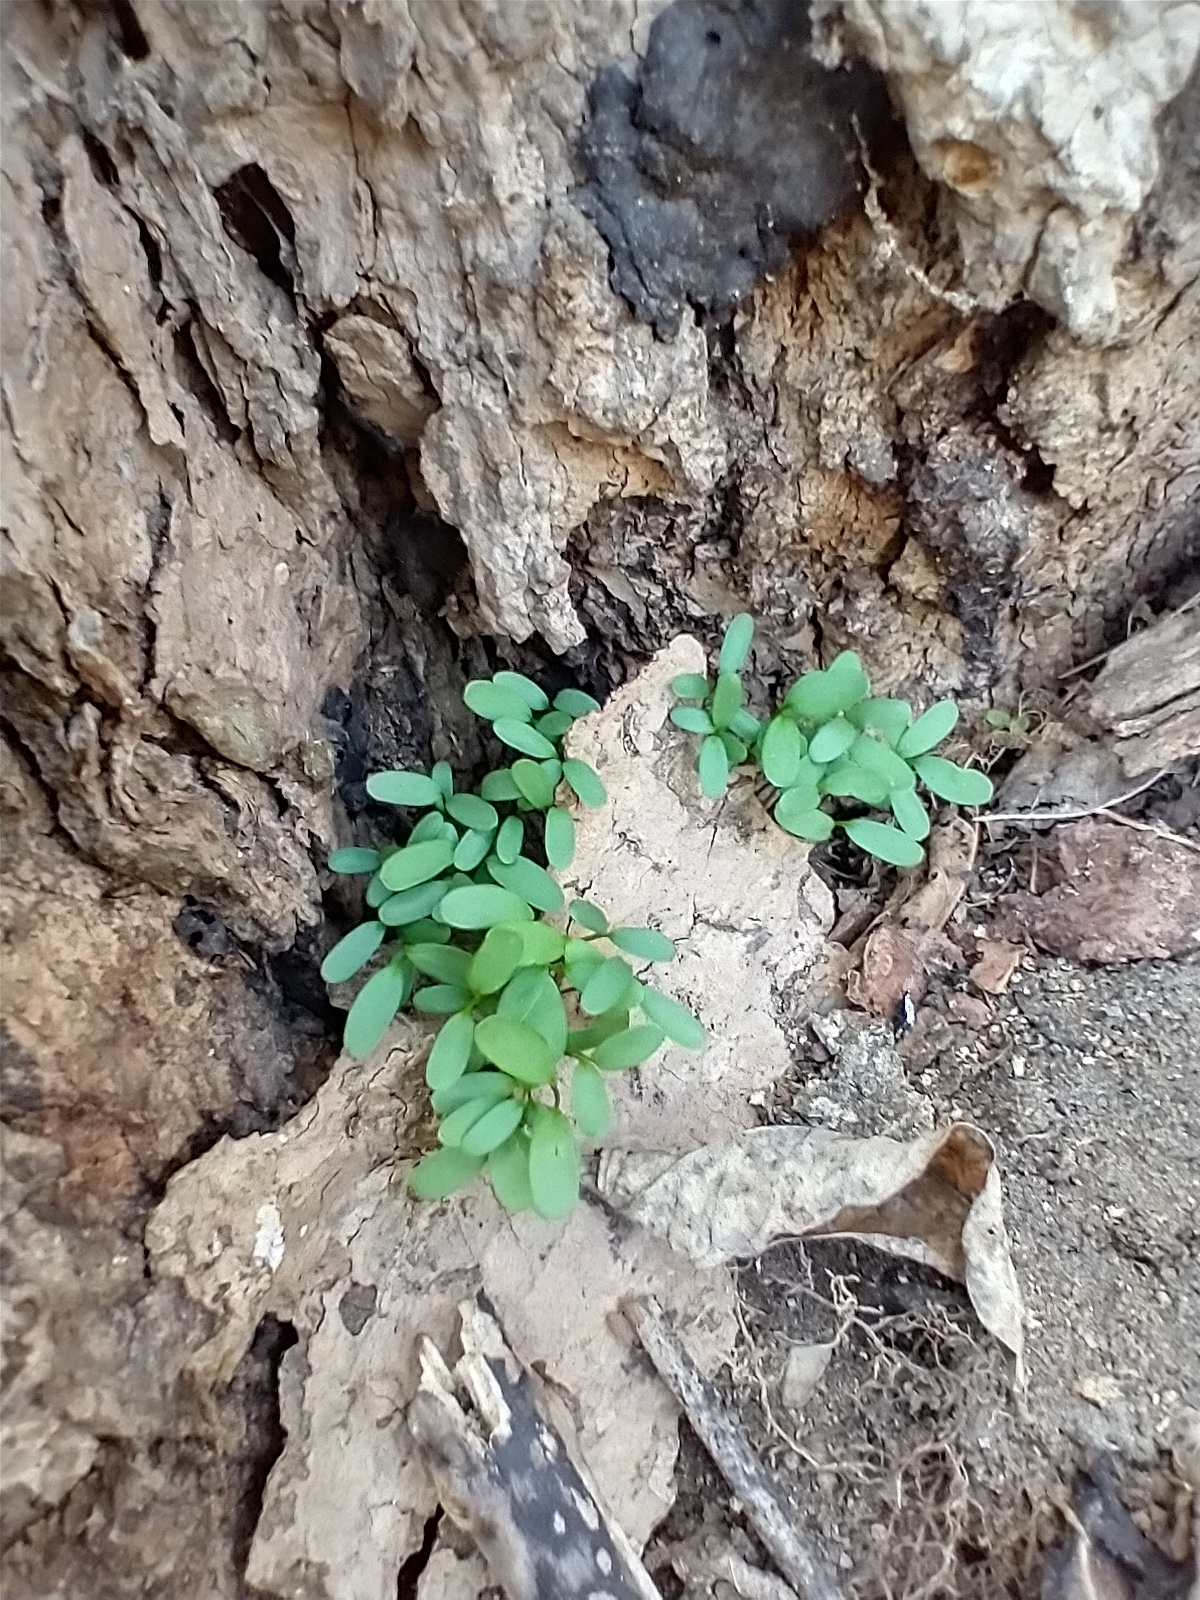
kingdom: Plantae
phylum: Tracheophyta
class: Magnoliopsida
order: Brassicales
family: Brassicaceae
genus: Alliaria
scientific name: Alliaria petiolata
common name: Garlic mustard
